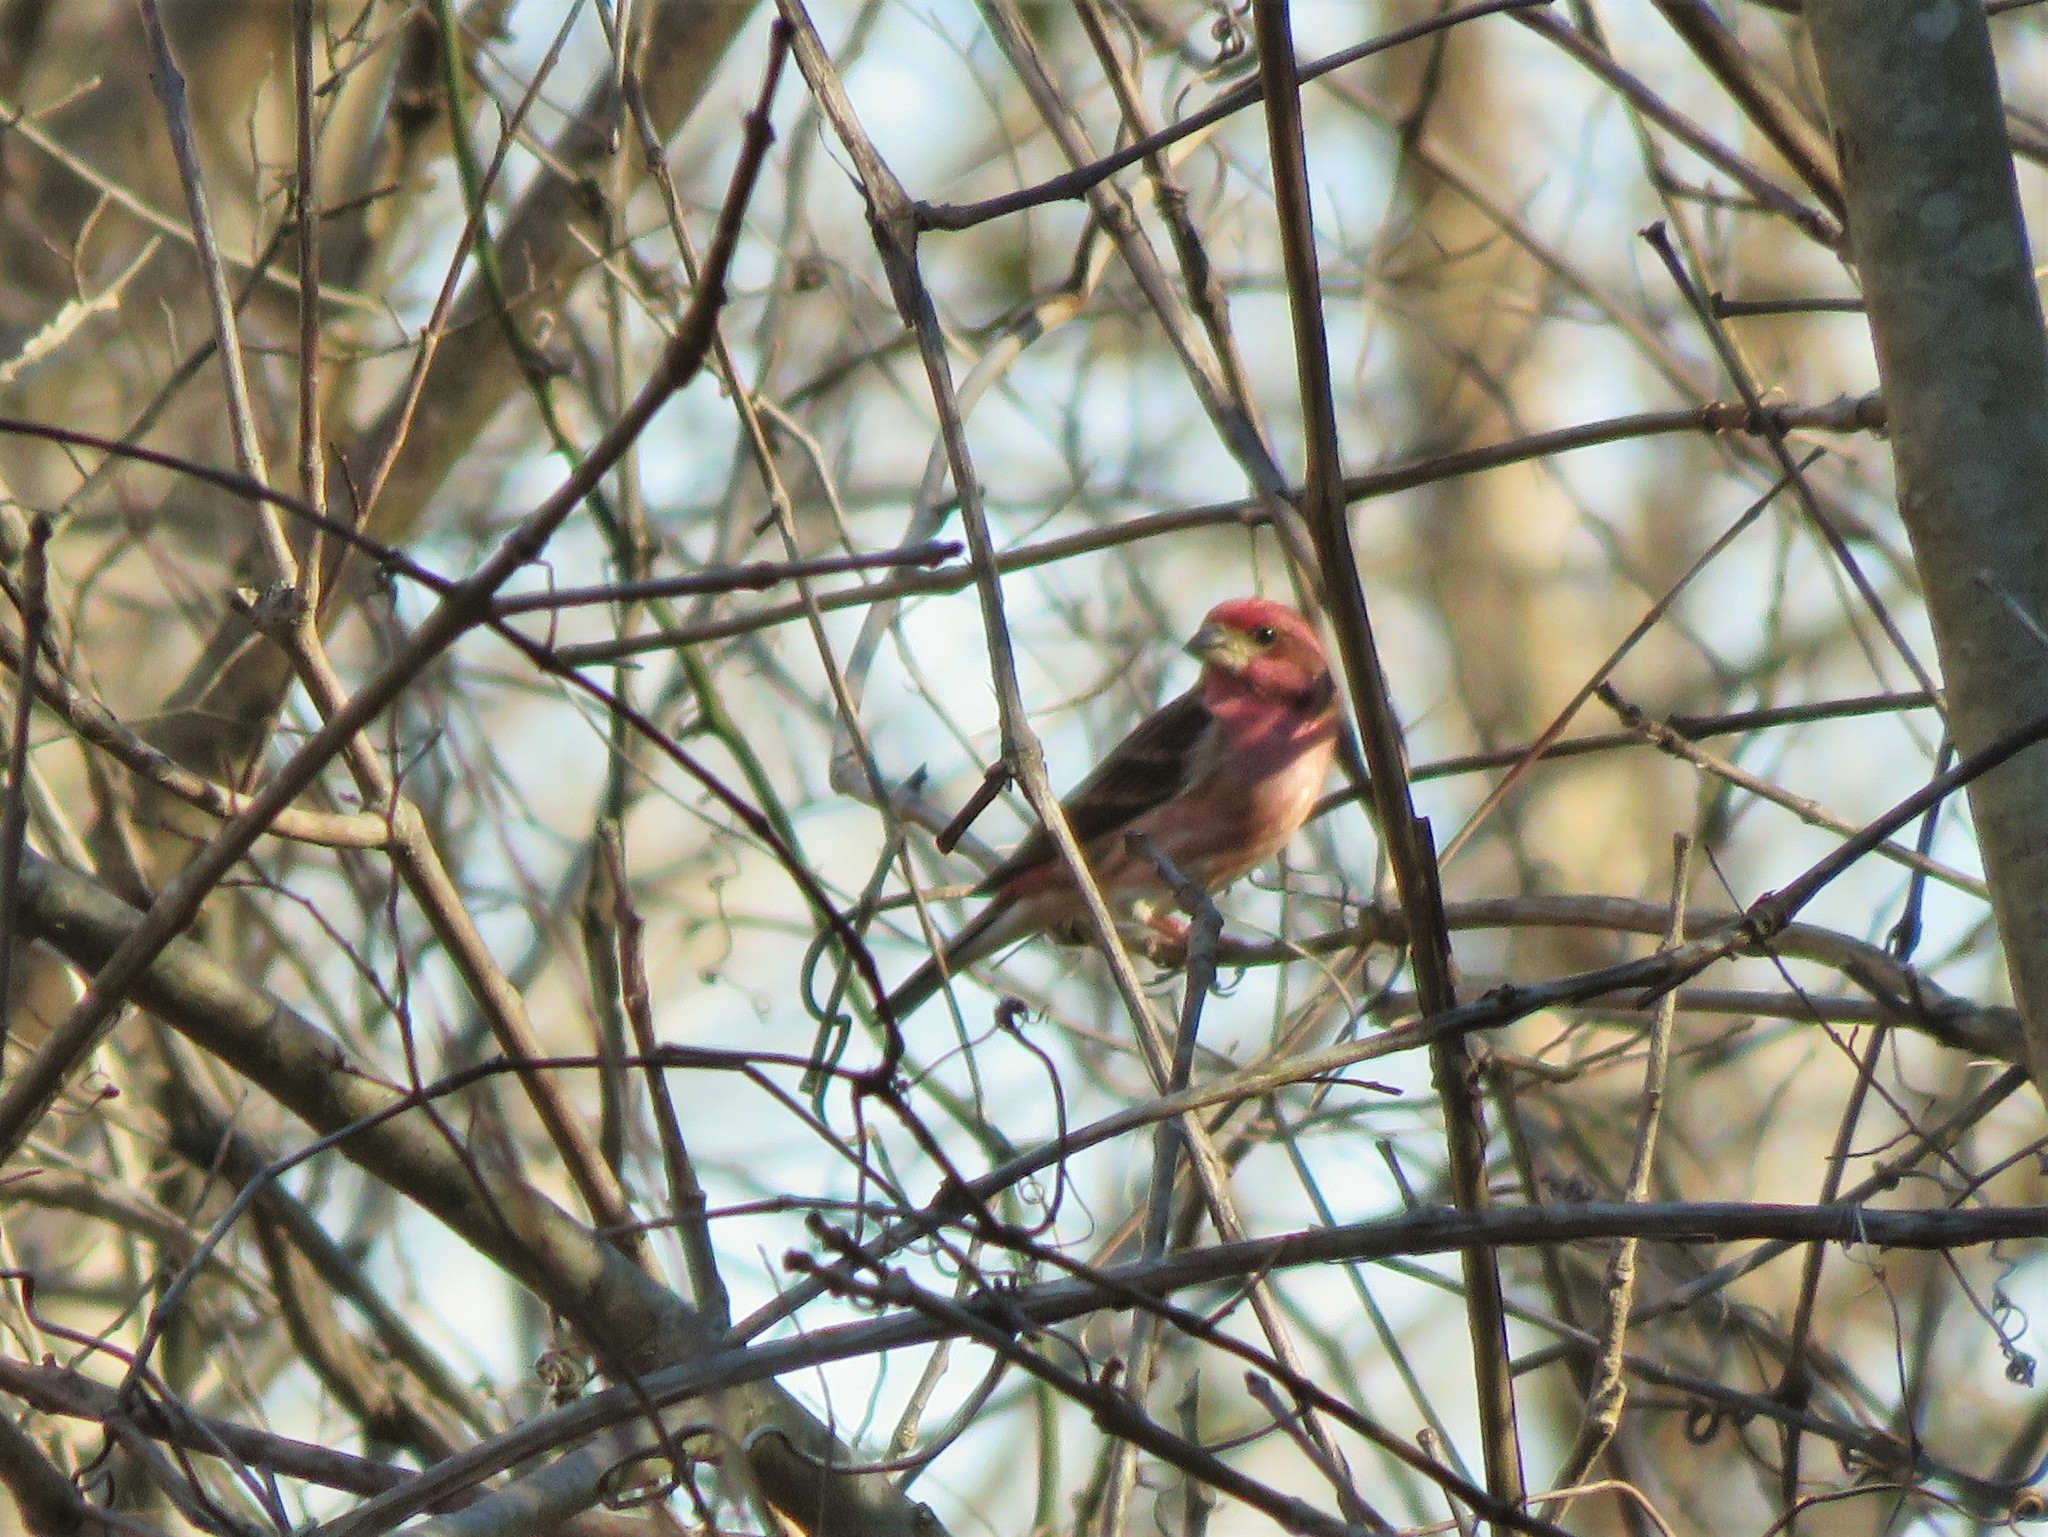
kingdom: Animalia
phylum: Chordata
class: Aves
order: Passeriformes
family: Fringillidae
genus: Haemorhous
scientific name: Haemorhous purpureus
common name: Purple finch
